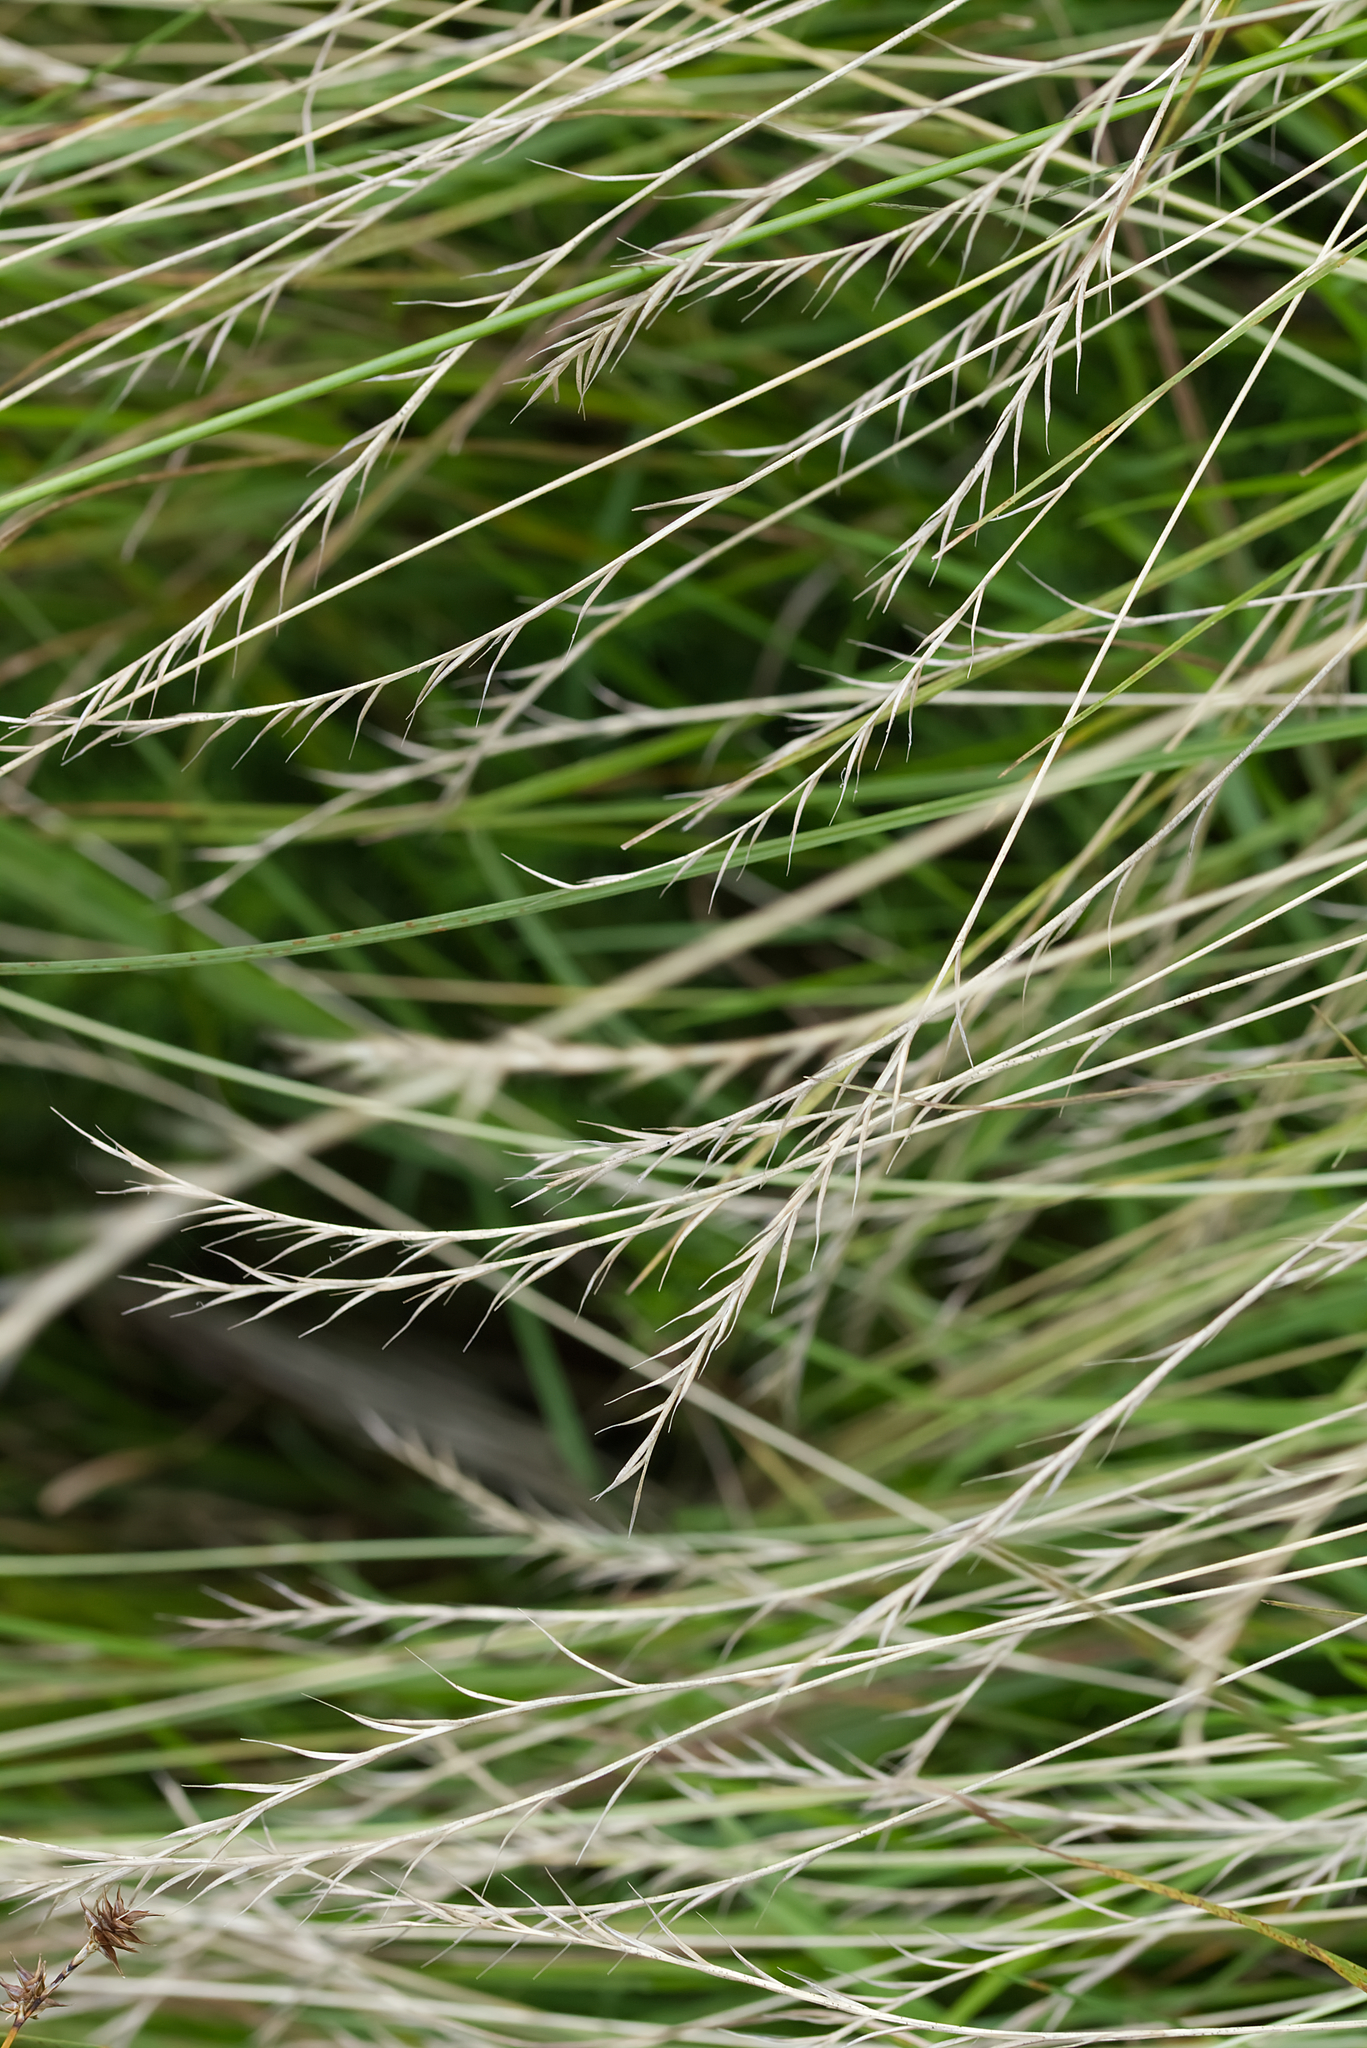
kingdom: Plantae
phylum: Tracheophyta
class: Liliopsida
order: Poales
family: Poaceae
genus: Nardus
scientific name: Nardus stricta
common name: Mat-grass
